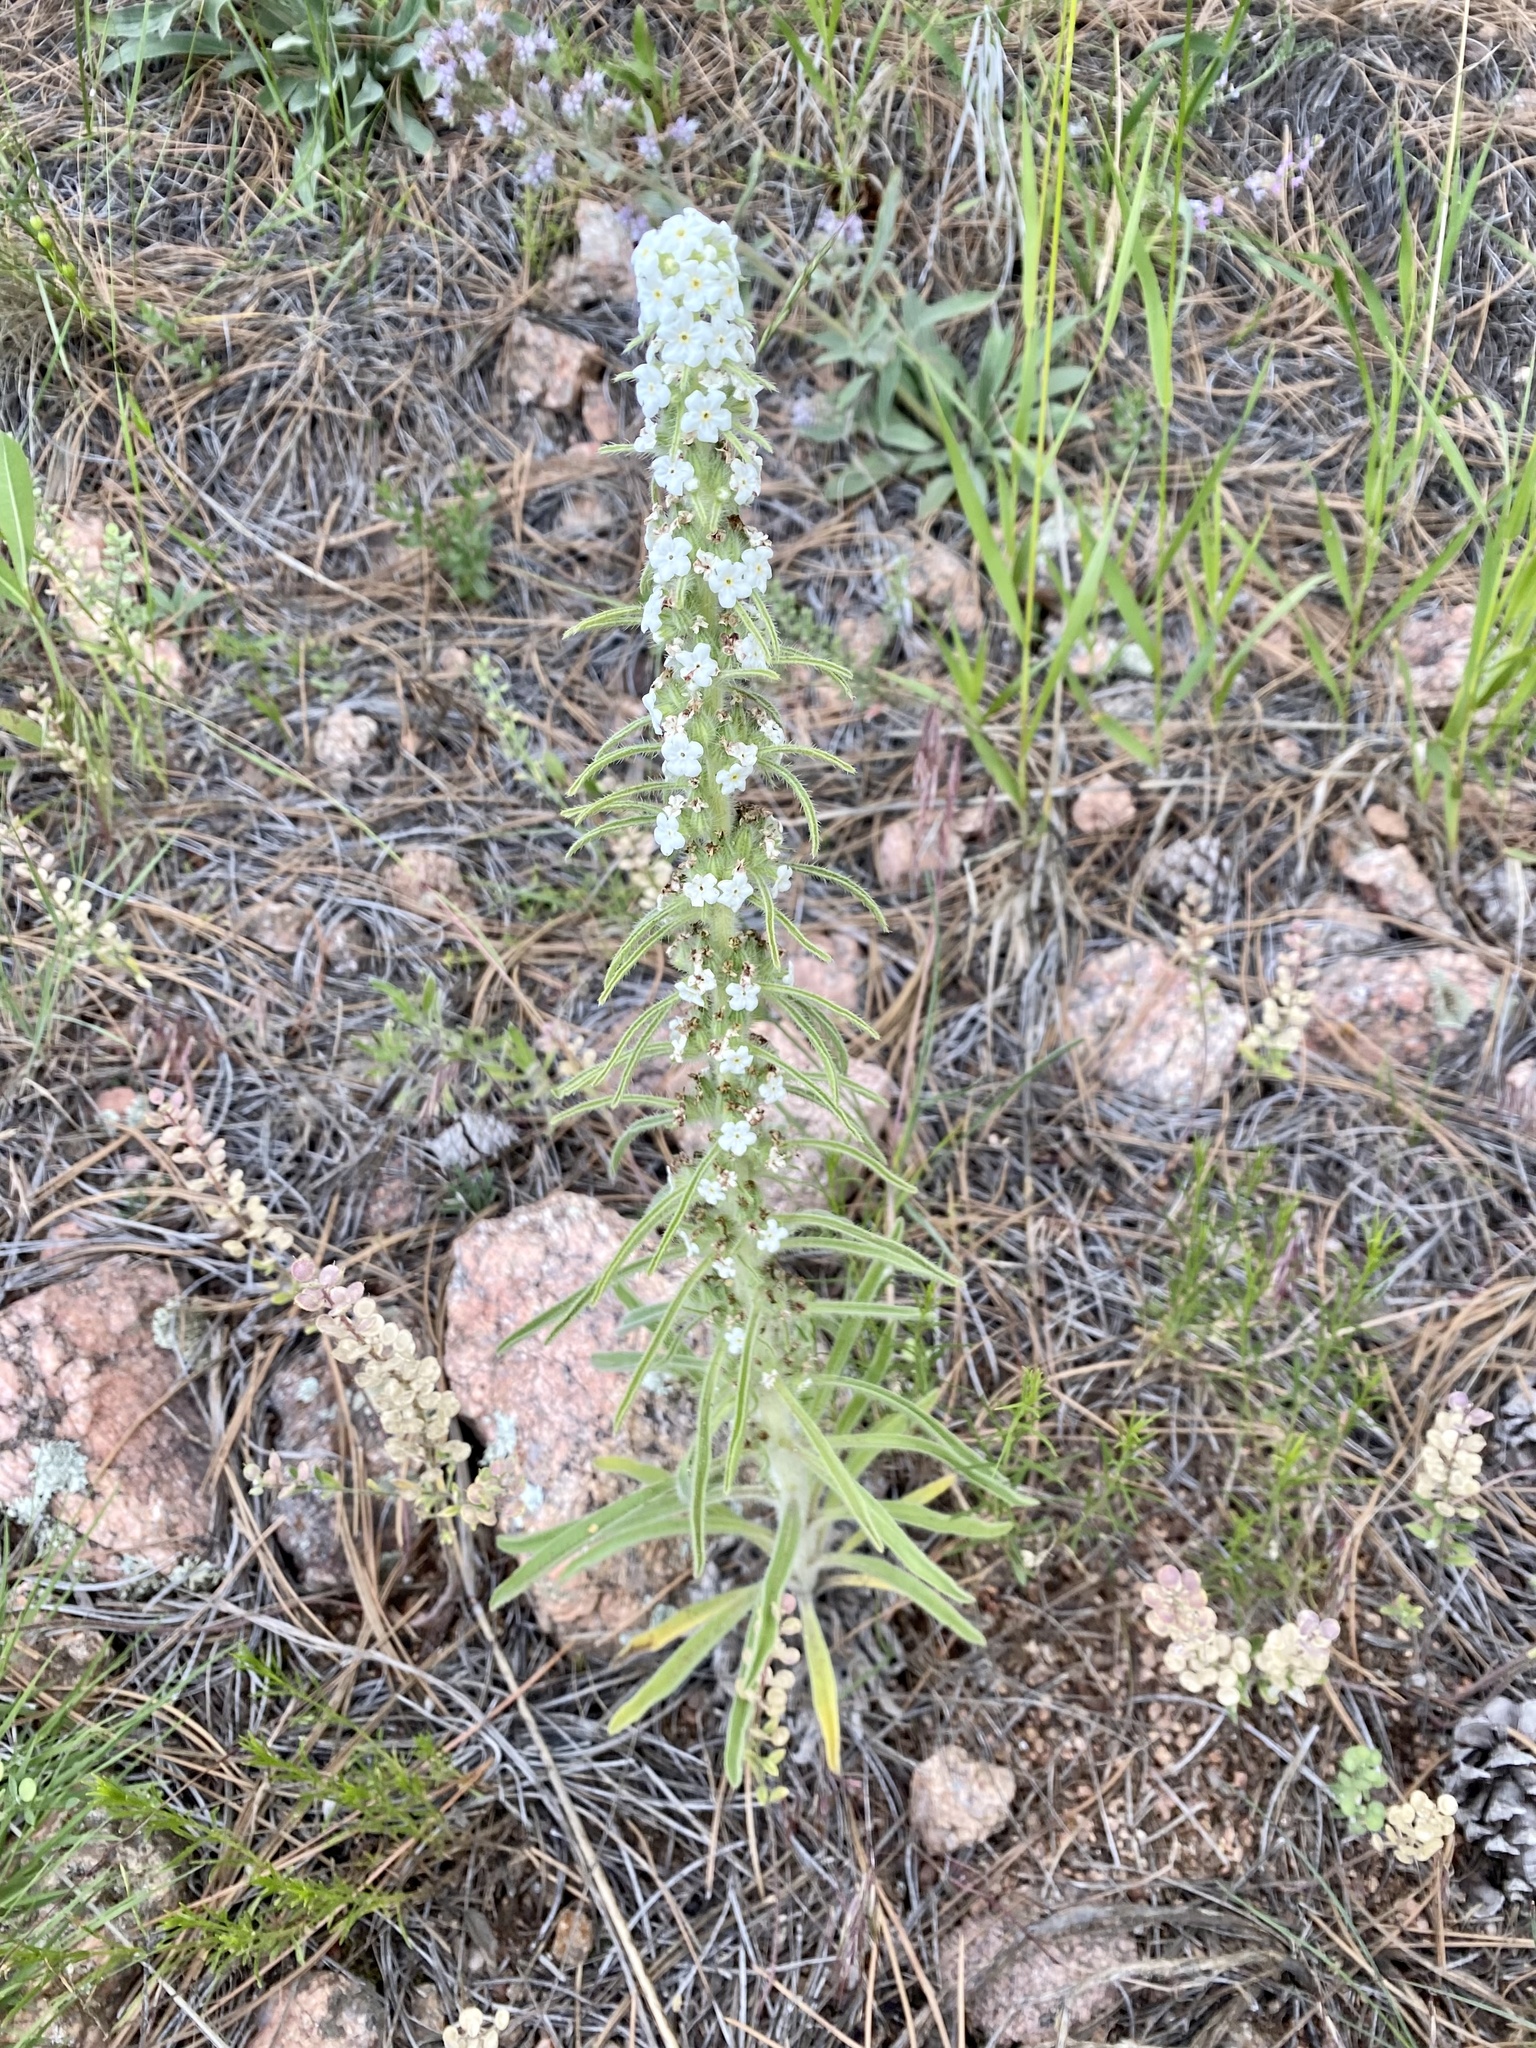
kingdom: Plantae
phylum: Tracheophyta
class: Magnoliopsida
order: Boraginales
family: Boraginaceae
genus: Oreocarya
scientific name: Oreocarya virgata
